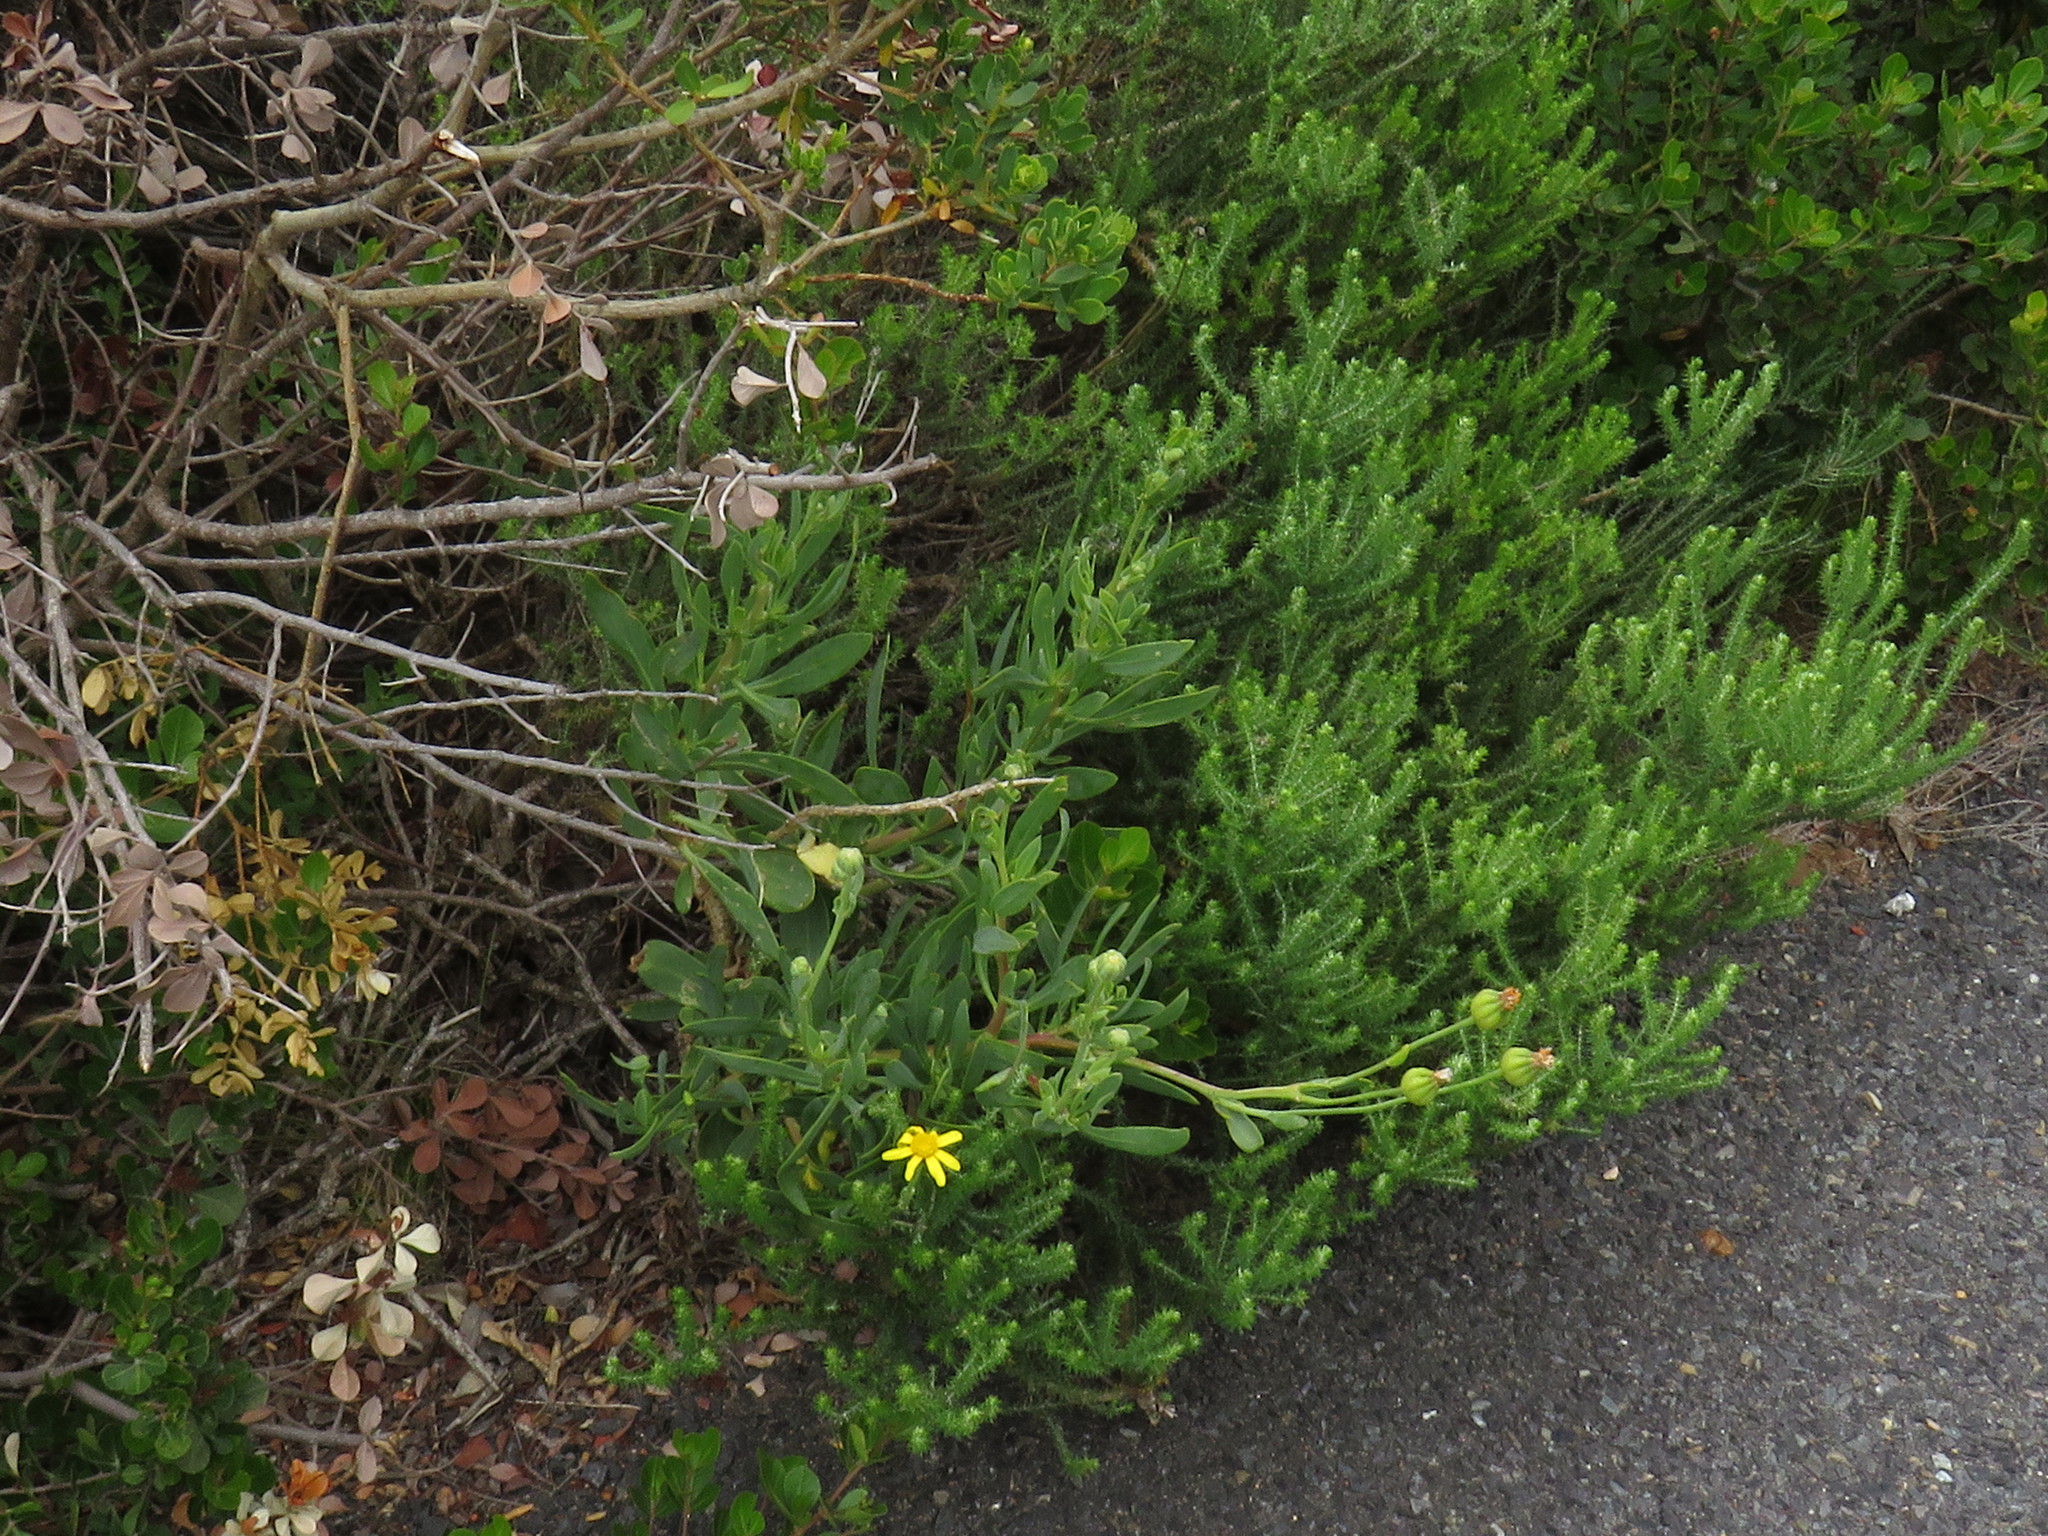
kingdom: Plantae
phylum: Tracheophyta
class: Magnoliopsida
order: Asterales
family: Asteraceae
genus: Othonna
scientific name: Othonna coronopifolia
